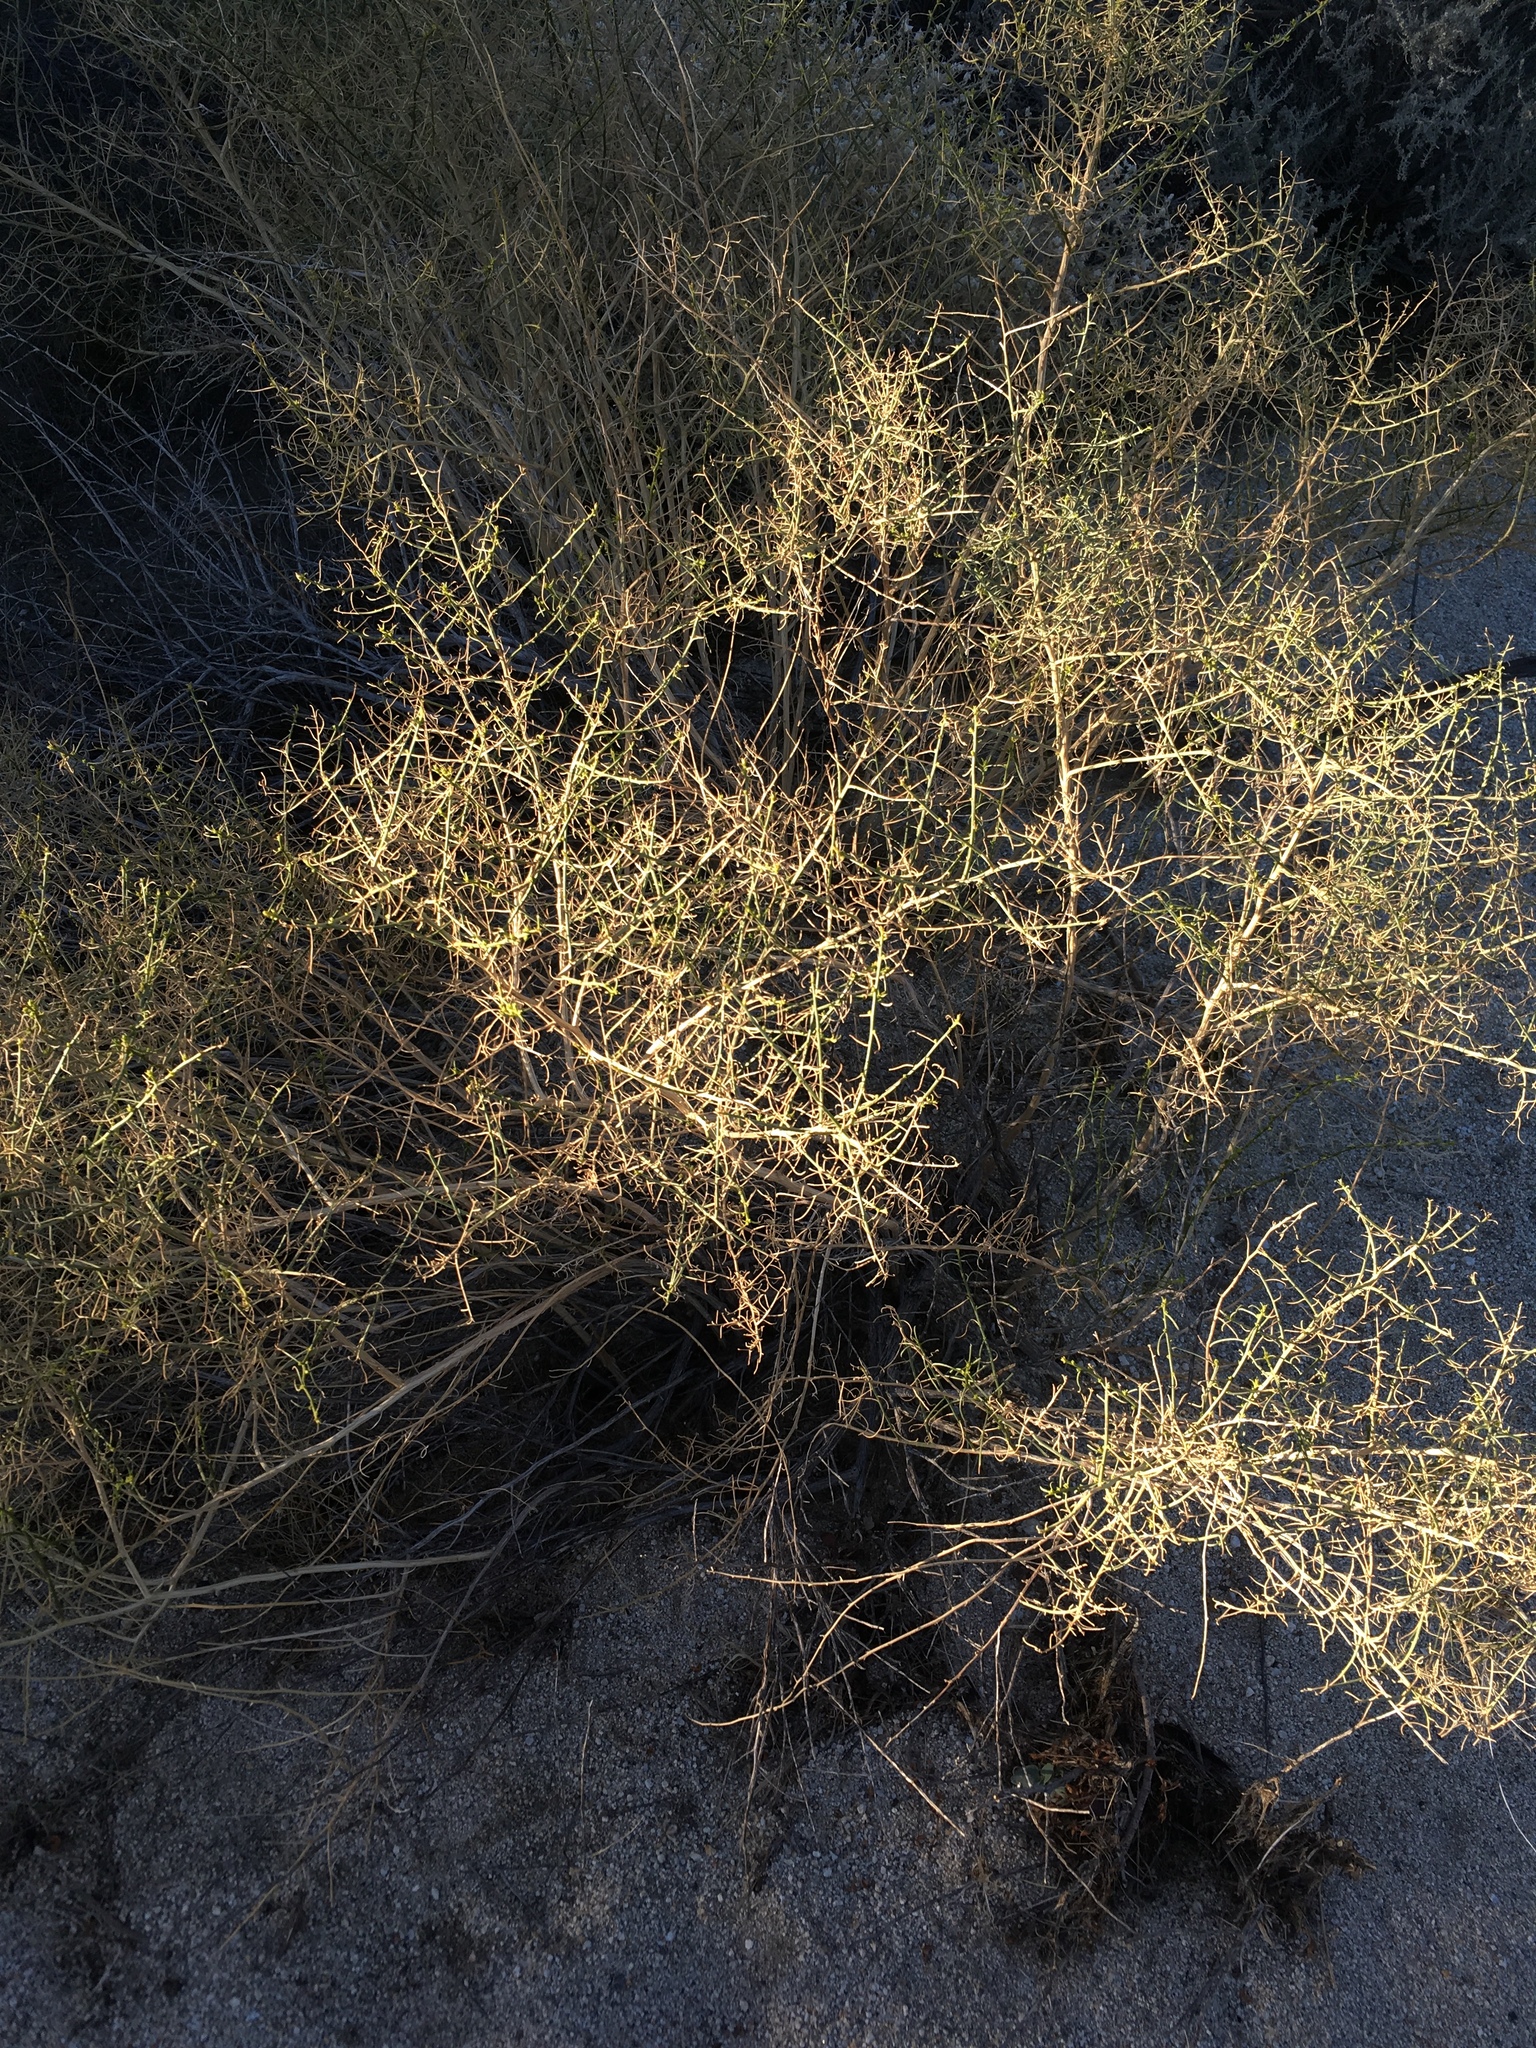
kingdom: Plantae
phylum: Tracheophyta
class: Magnoliopsida
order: Asterales
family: Asteraceae
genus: Ambrosia
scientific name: Ambrosia salsola
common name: Burrobrush
